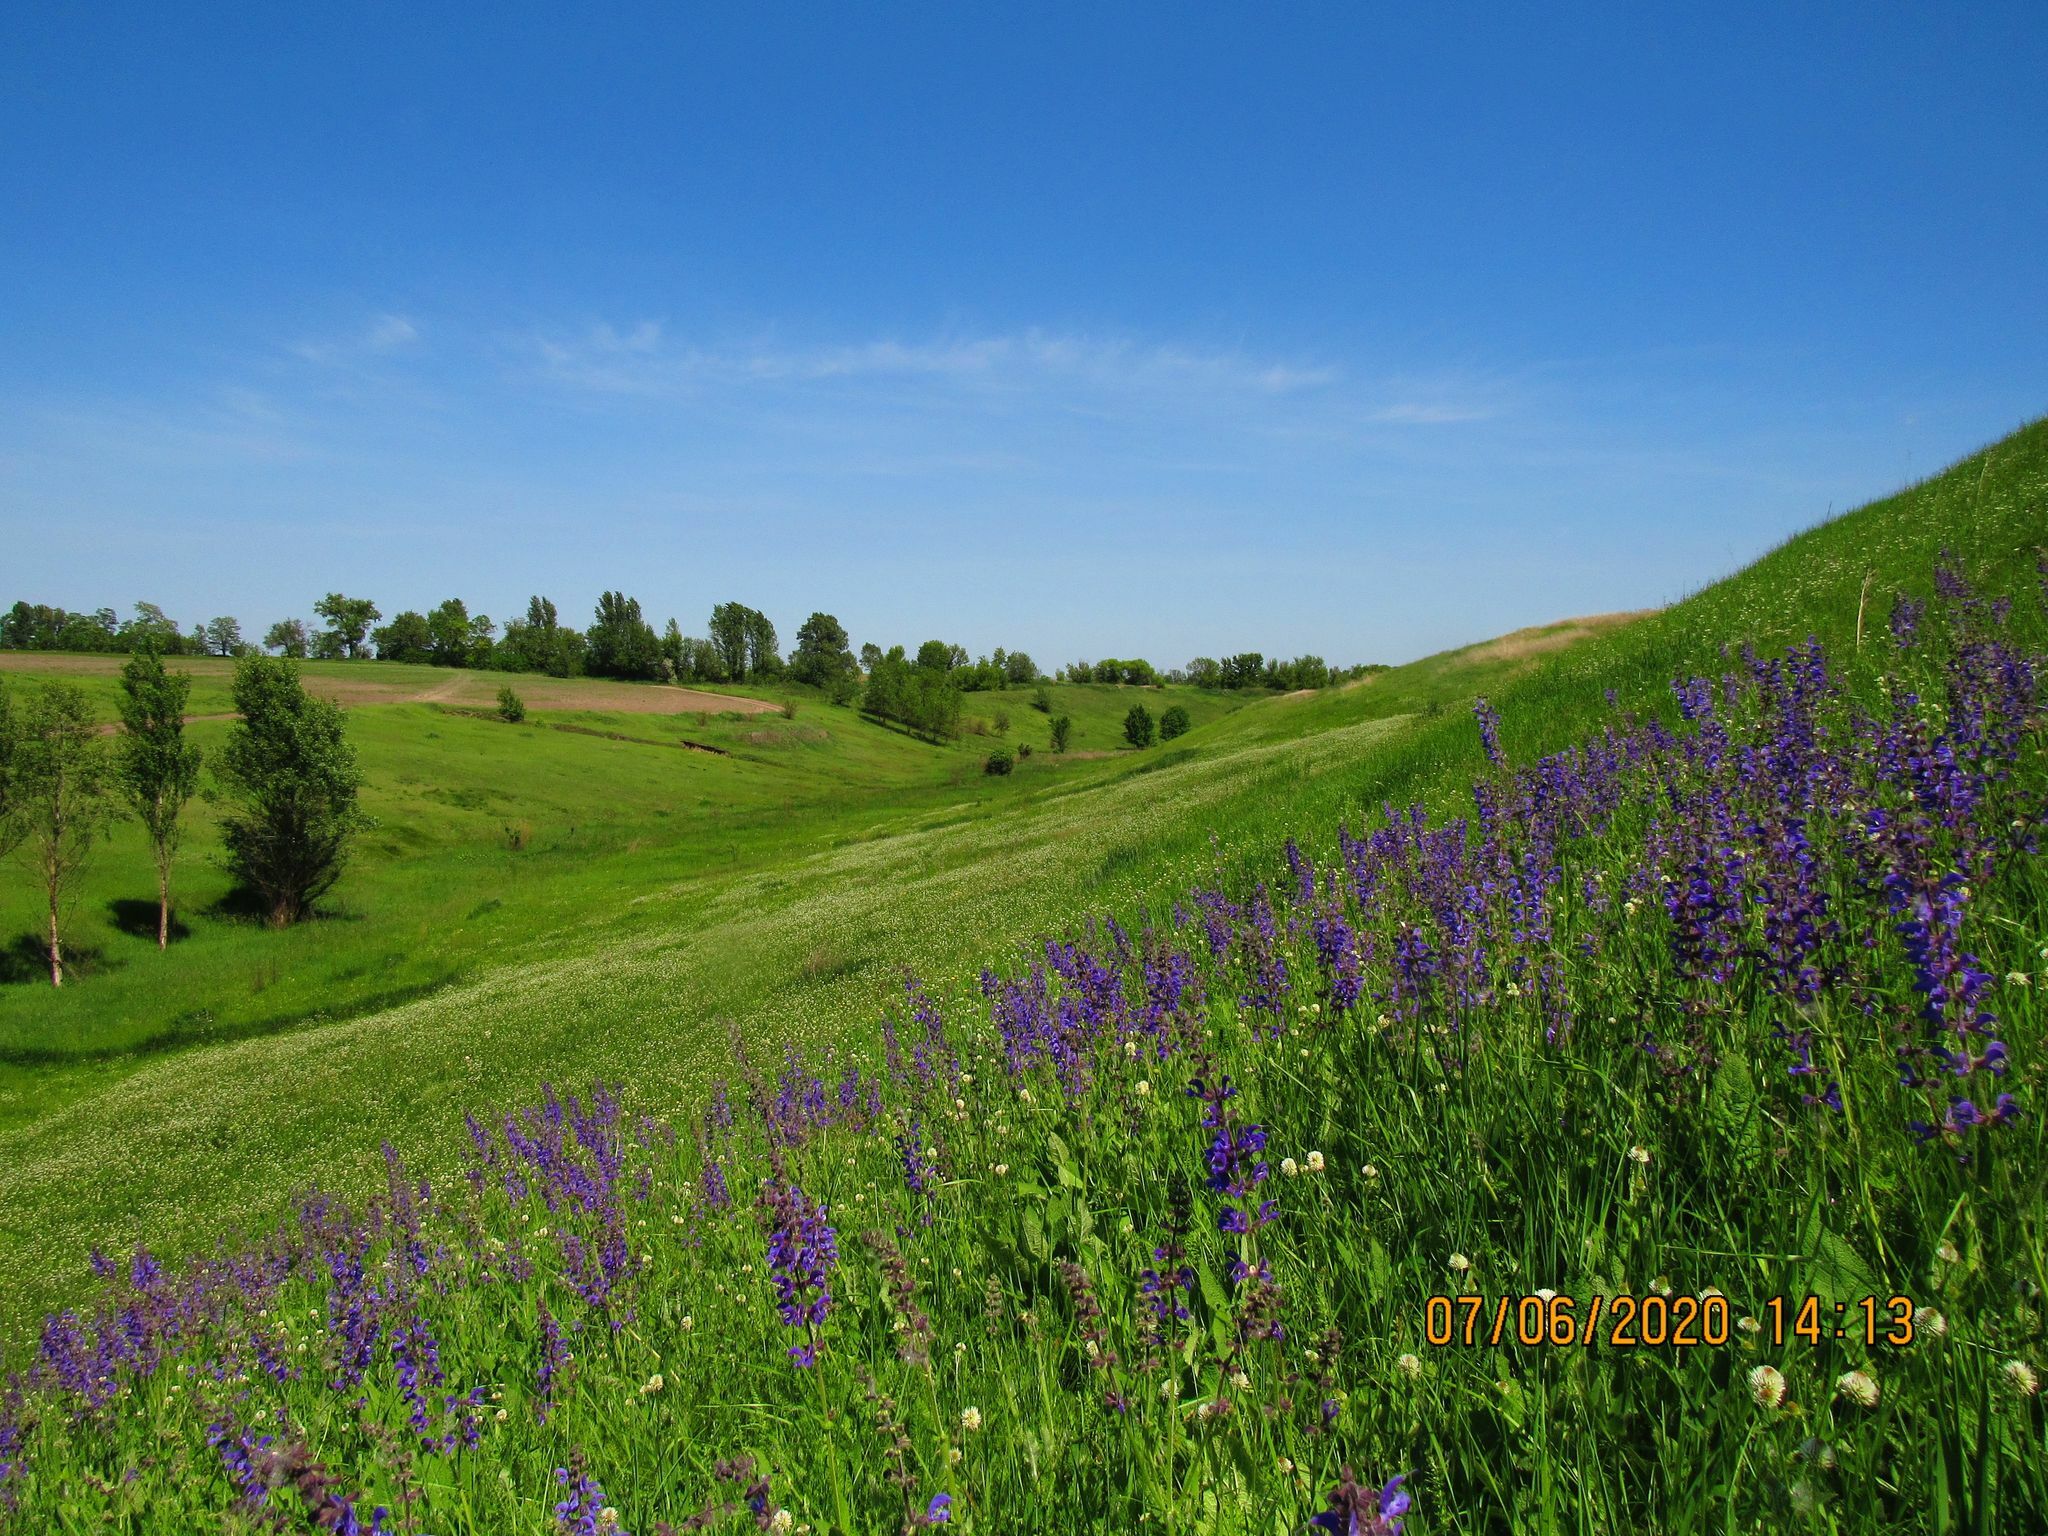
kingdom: Plantae
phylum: Tracheophyta
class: Magnoliopsida
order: Fabales
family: Fabaceae
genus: Trifolium
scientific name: Trifolium montanum
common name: Mountain clover
